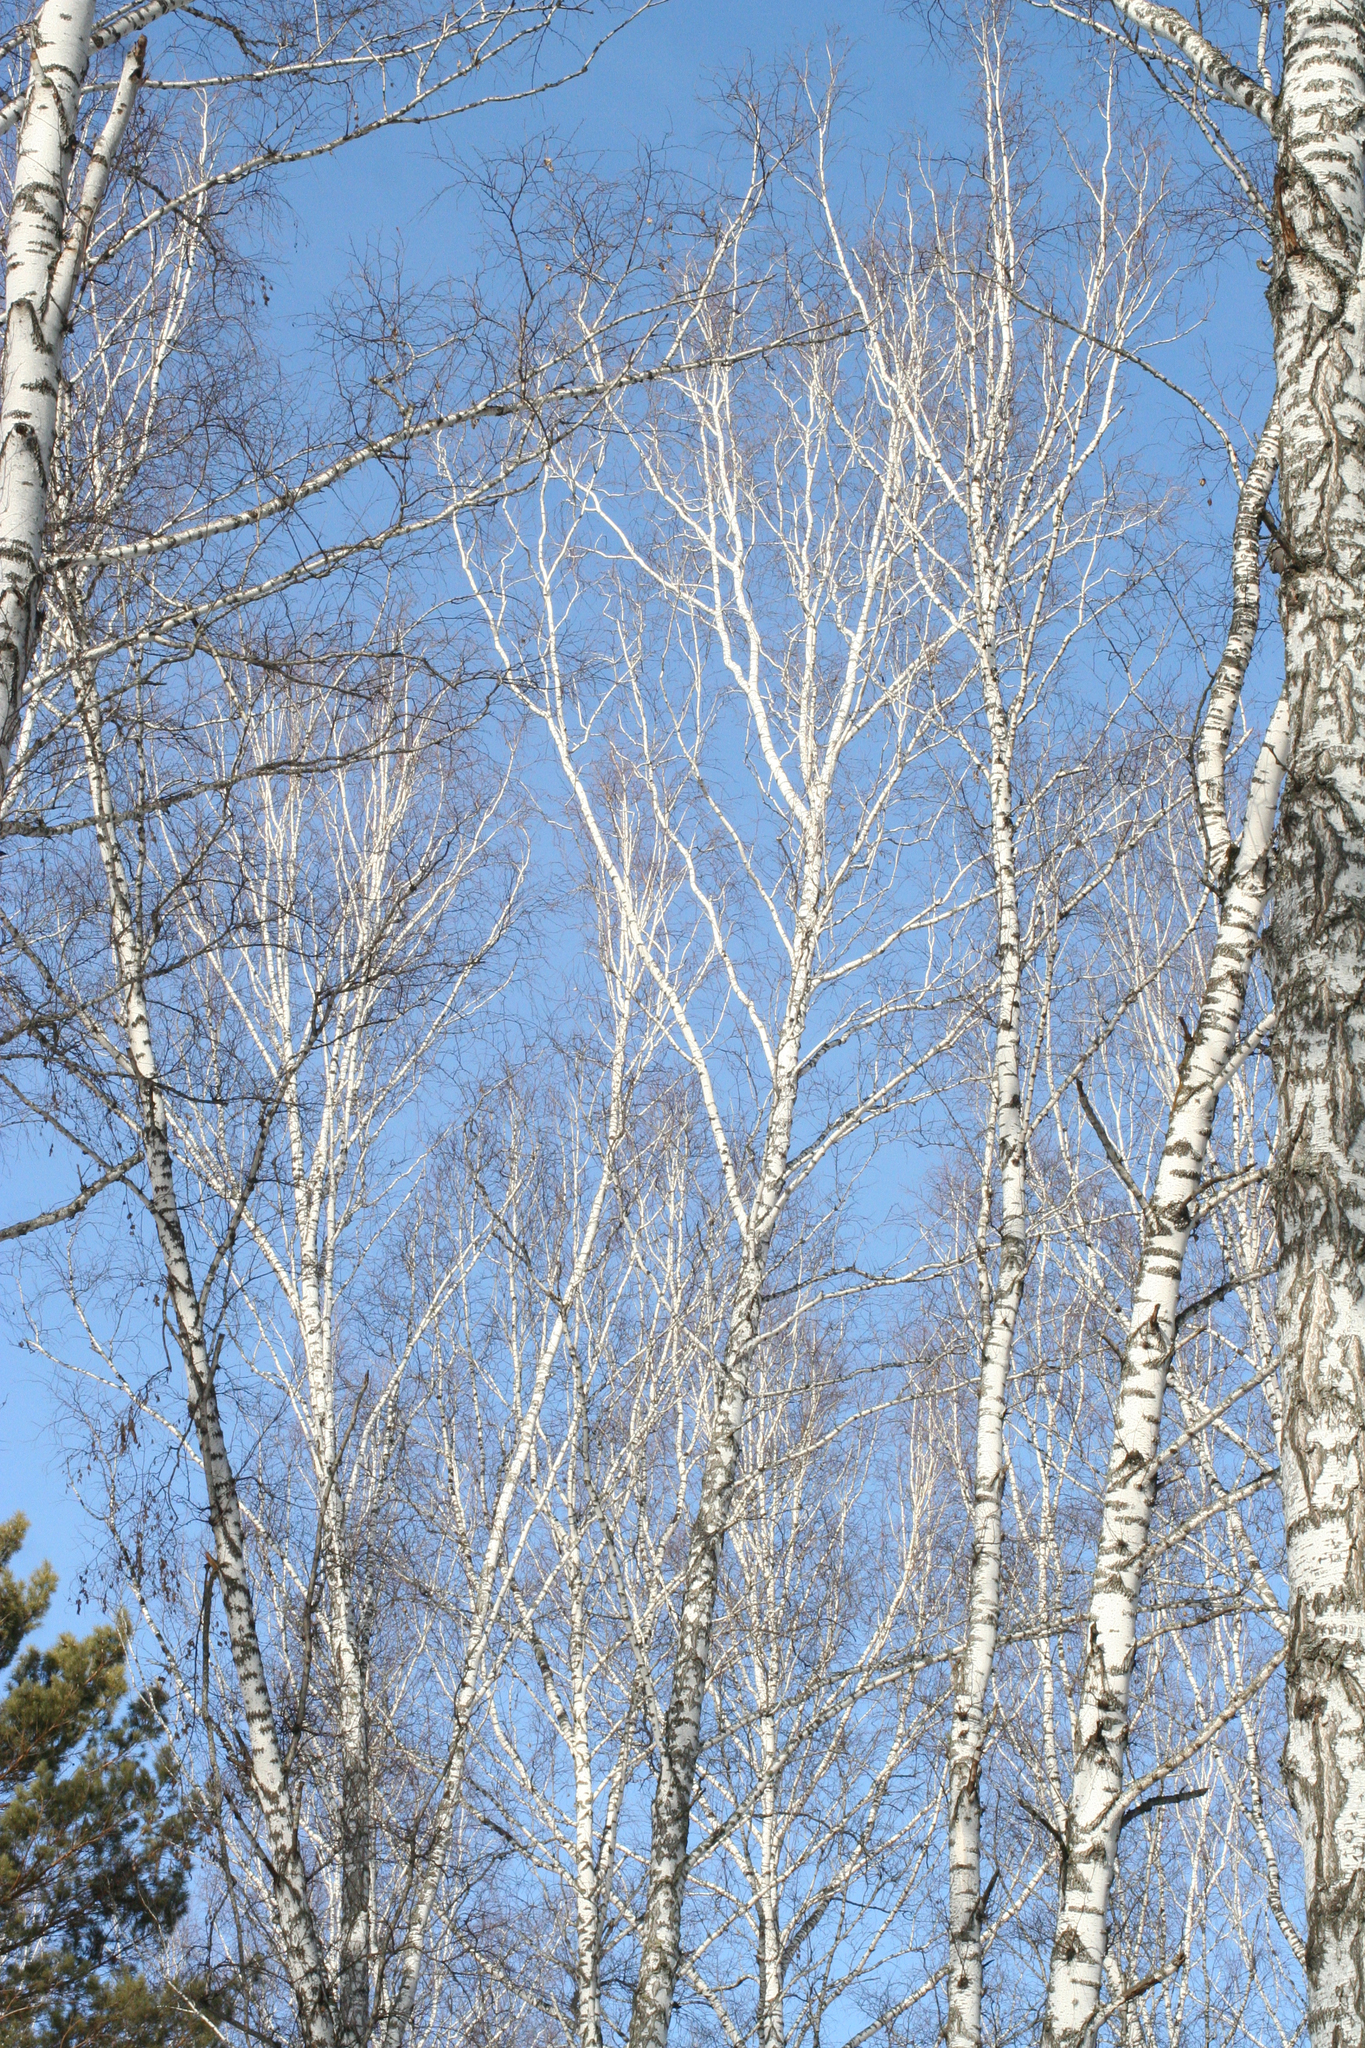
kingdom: Plantae
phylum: Tracheophyta
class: Magnoliopsida
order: Fagales
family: Betulaceae
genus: Betula
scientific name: Betula pendula
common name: Silver birch
